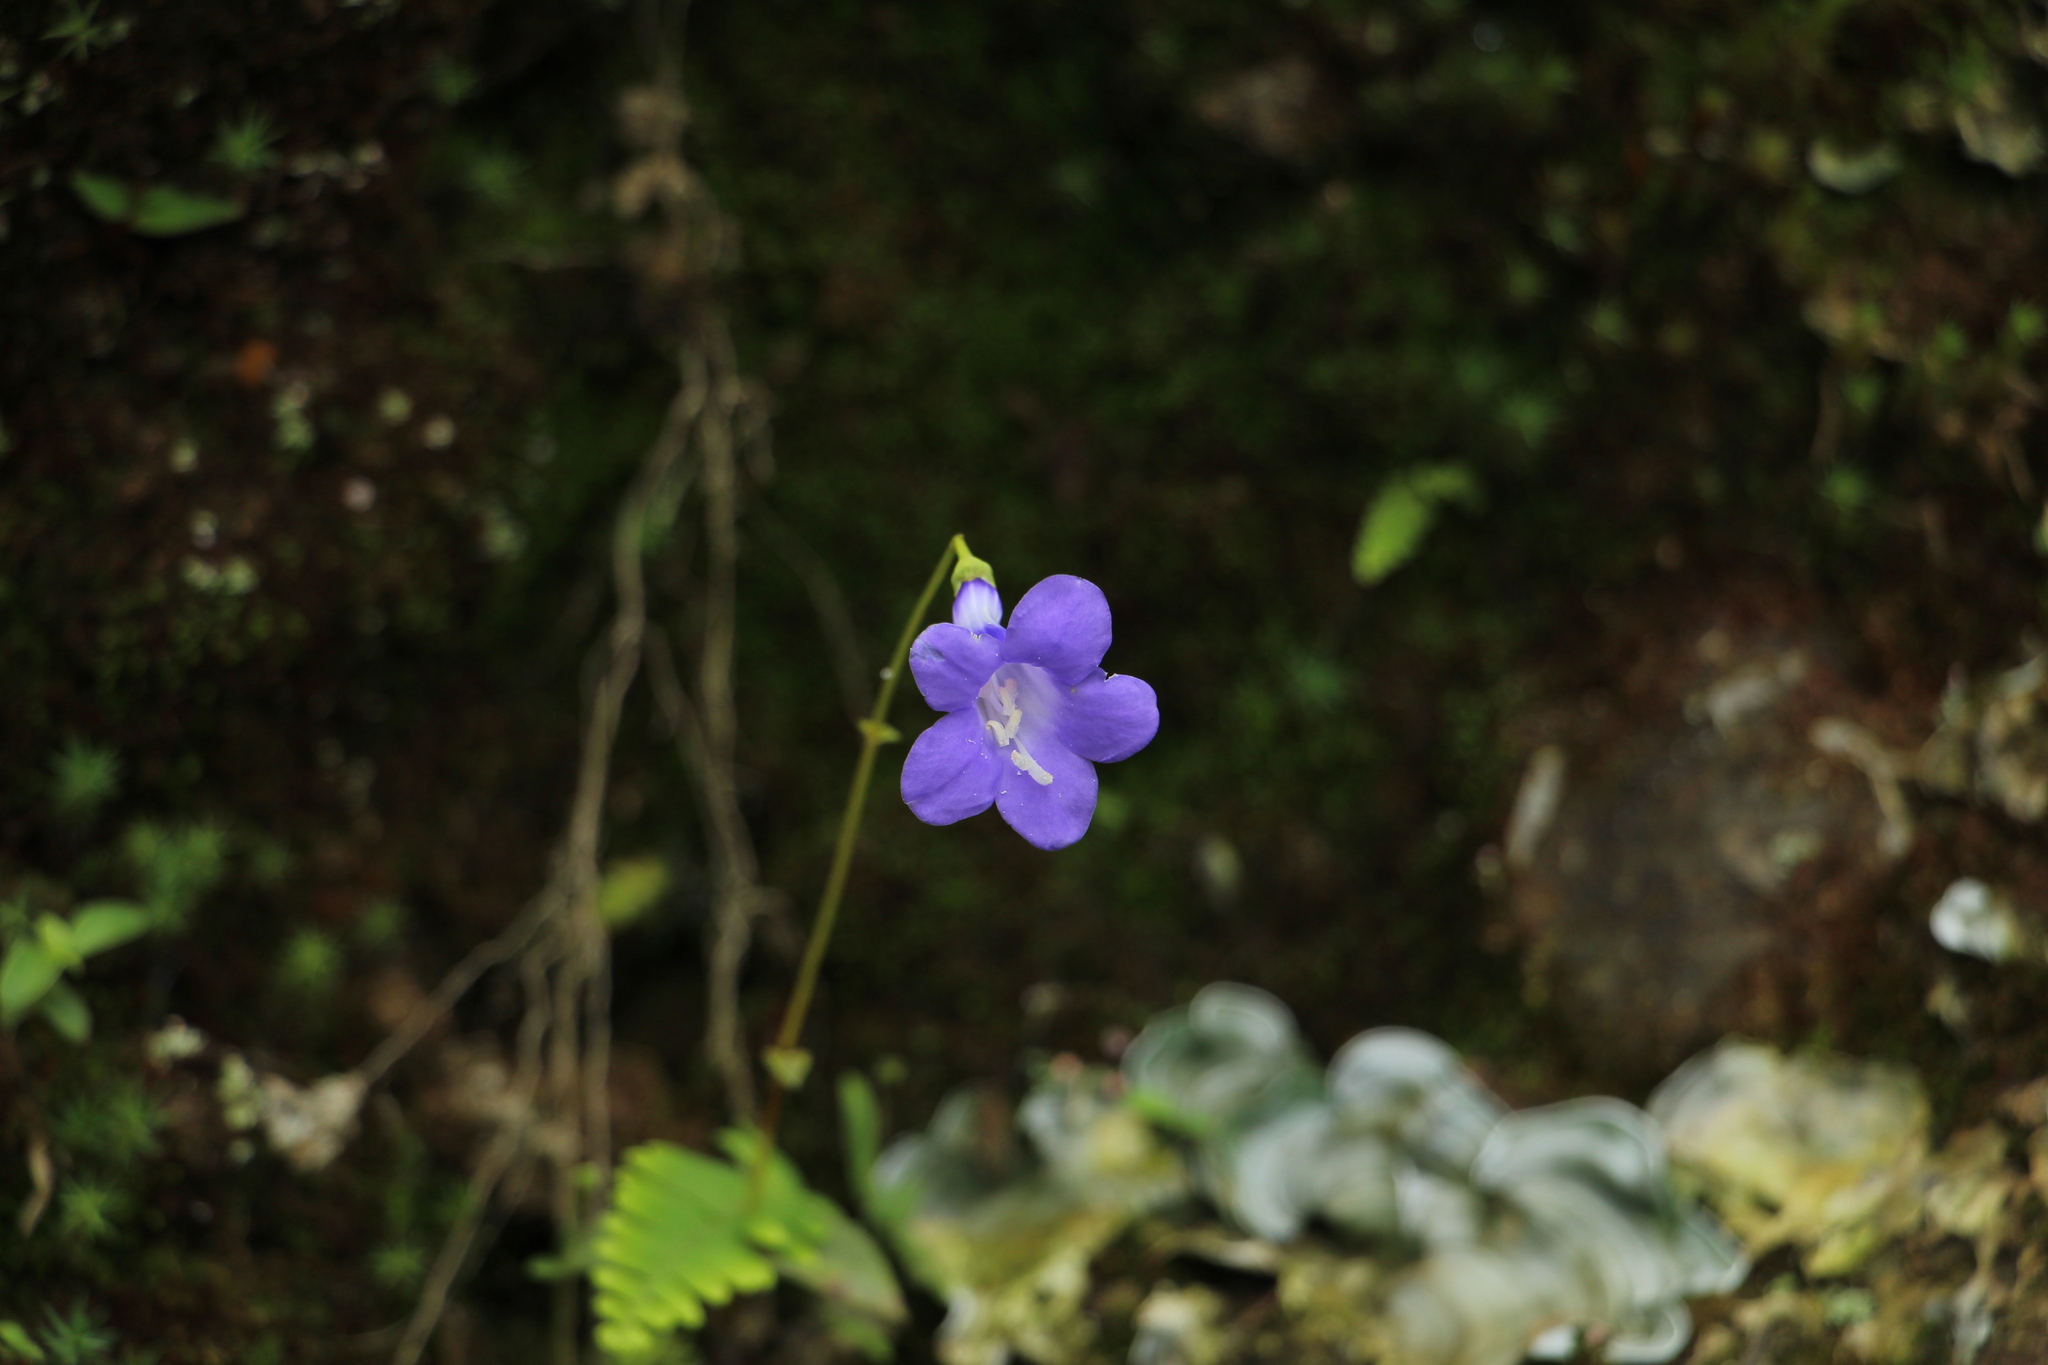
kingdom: Plantae
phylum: Tracheophyta
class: Magnoliopsida
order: Gentianales
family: Gentianaceae
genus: Chelonanthus
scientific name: Chelonanthus purpurascens
